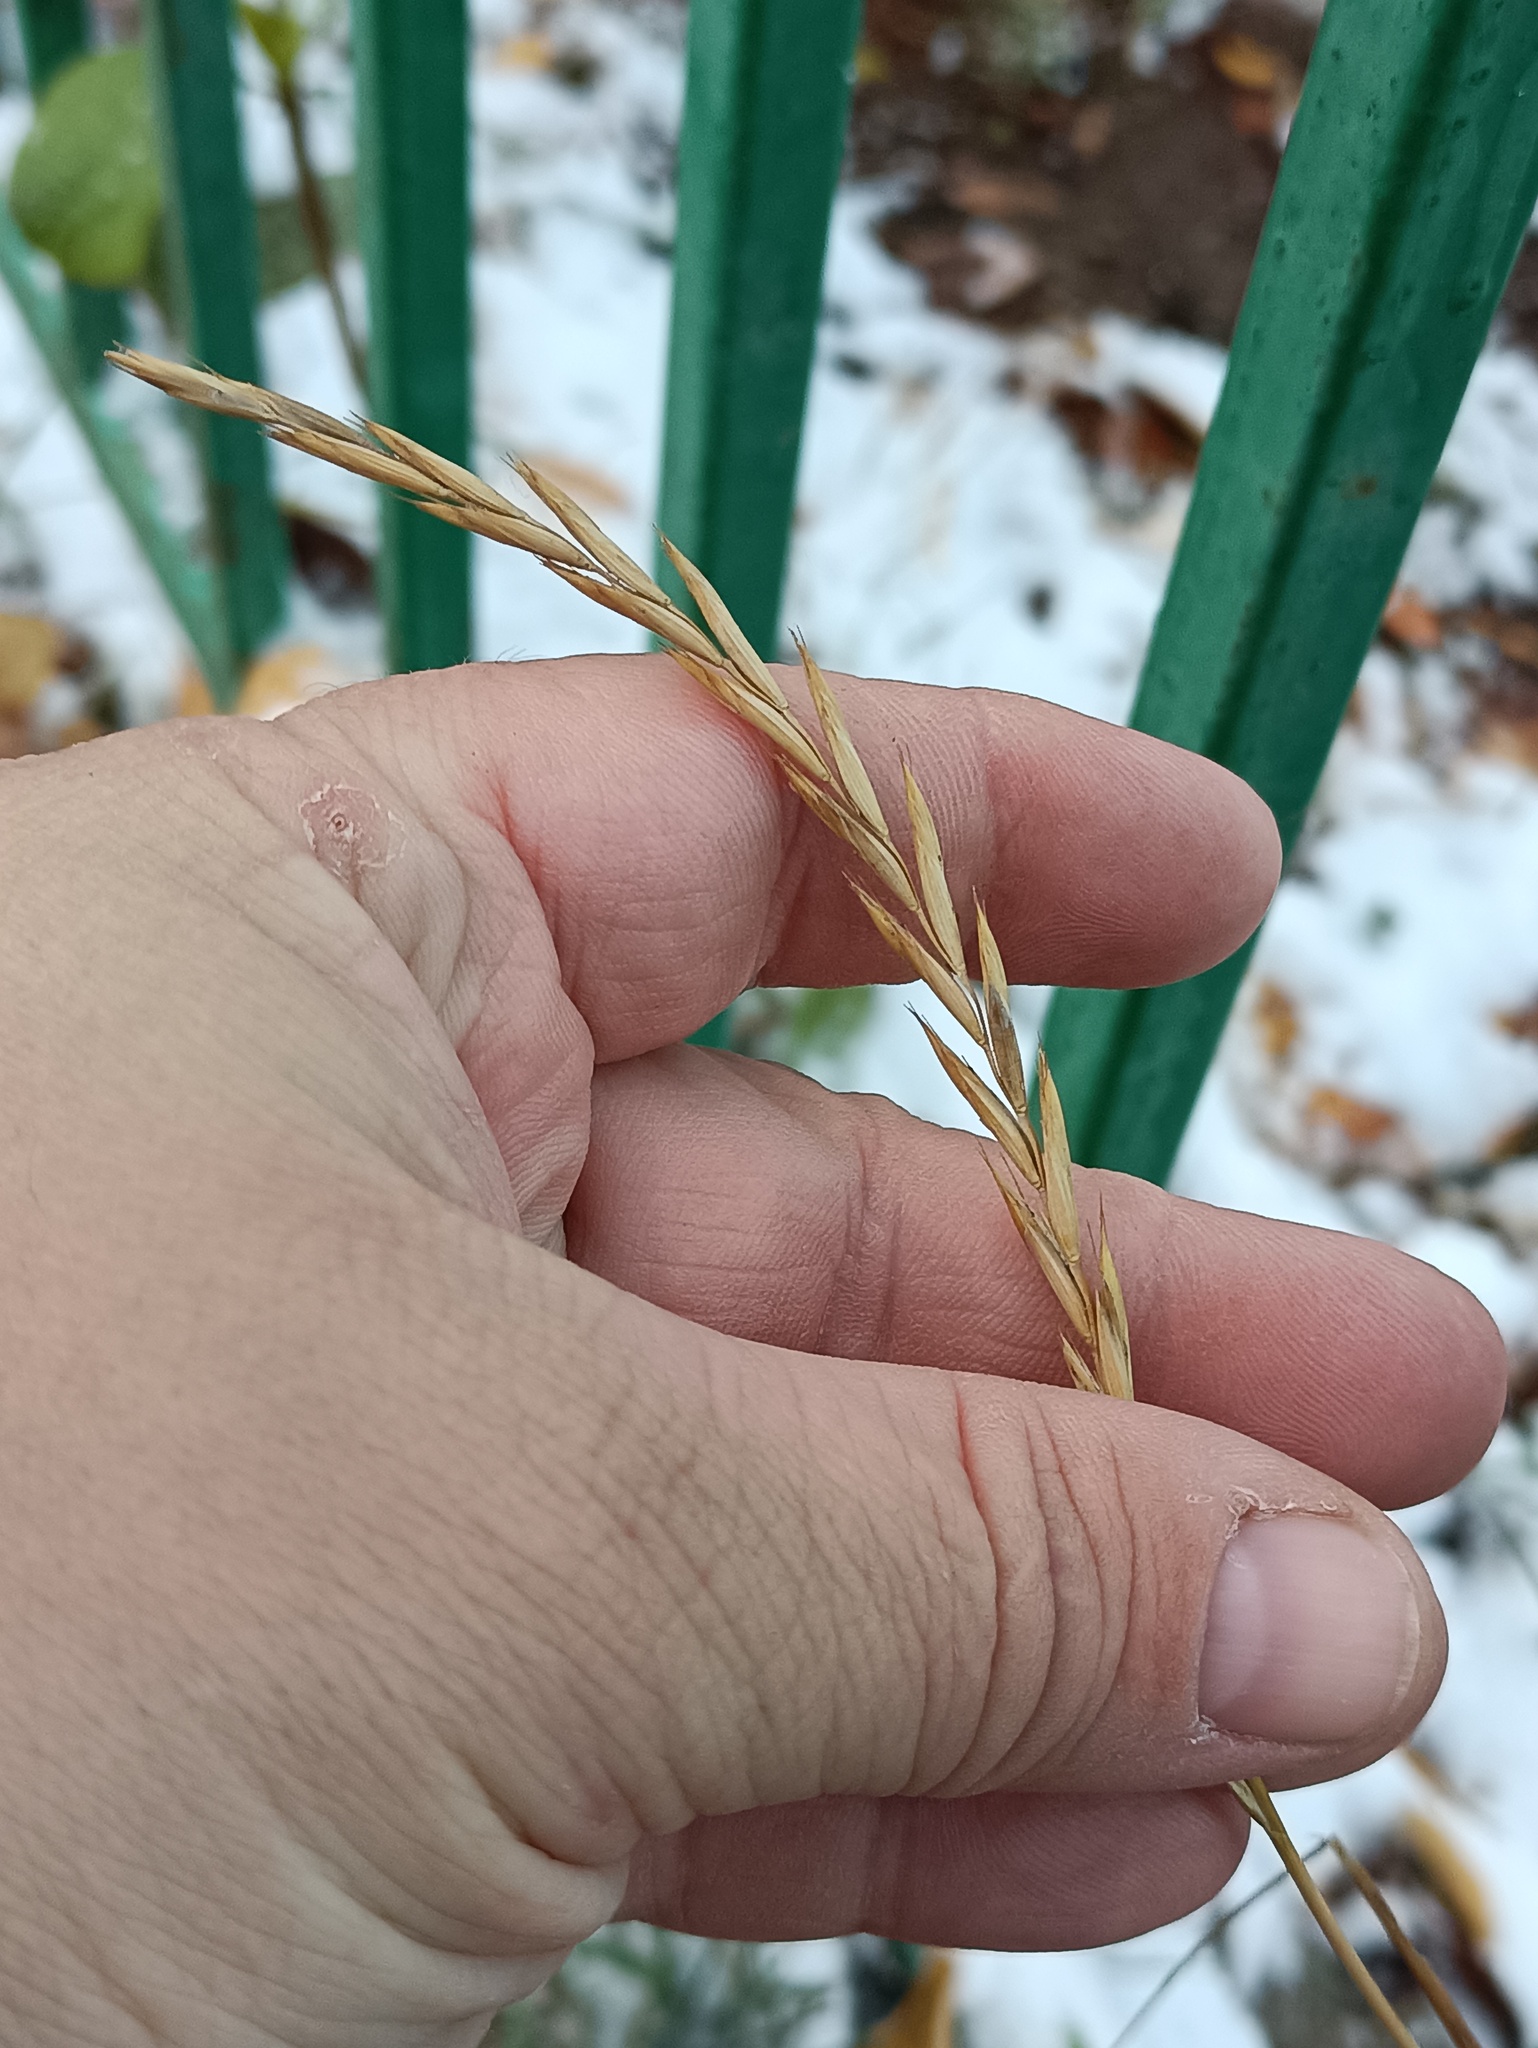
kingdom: Plantae
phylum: Tracheophyta
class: Liliopsida
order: Poales
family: Poaceae
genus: Elymus
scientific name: Elymus repens
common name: Quackgrass
